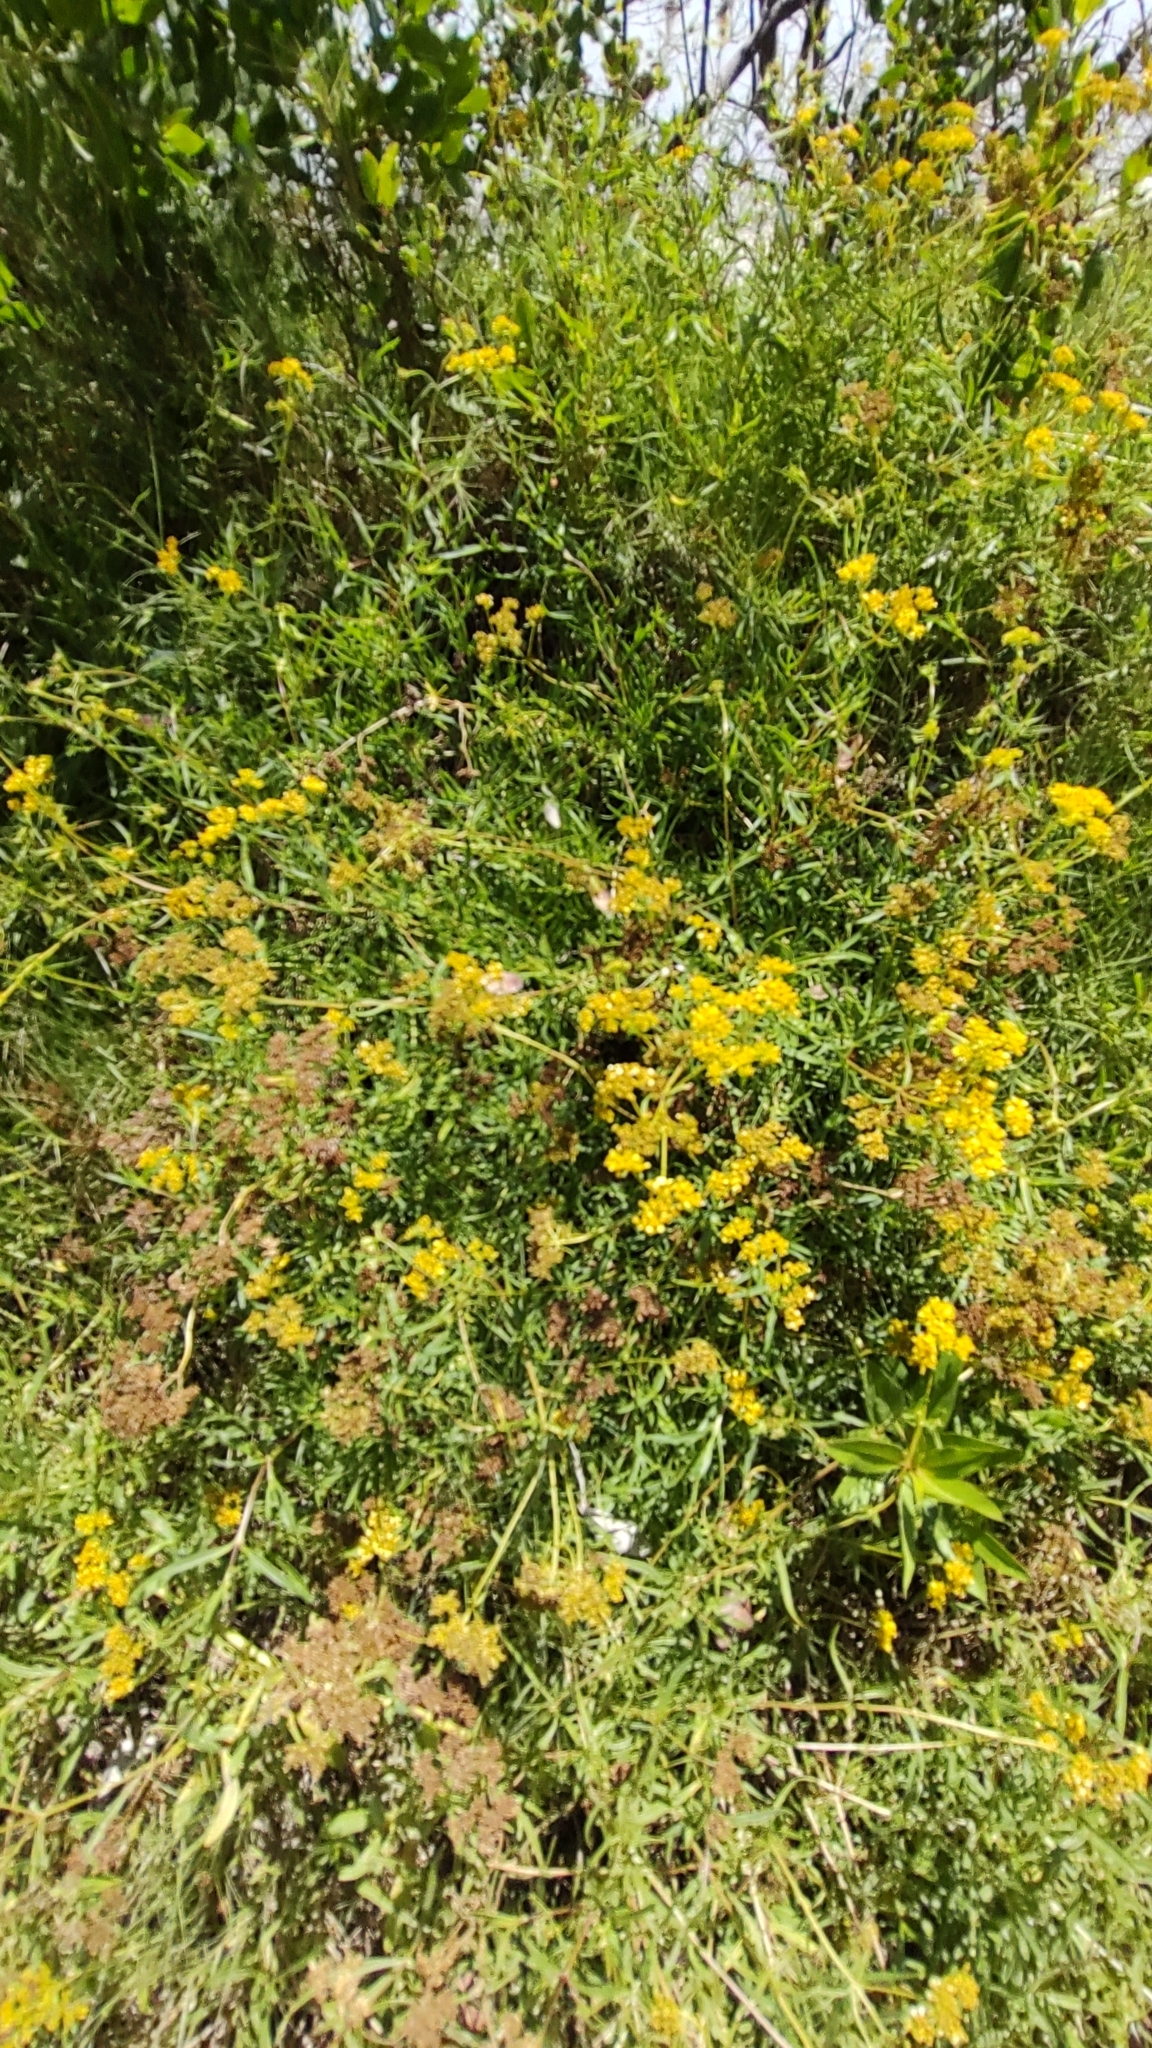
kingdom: Plantae
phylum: Tracheophyta
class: Magnoliopsida
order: Asterales
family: Asteraceae
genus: Flaveria
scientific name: Flaveria linearis
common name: Yellowtop
